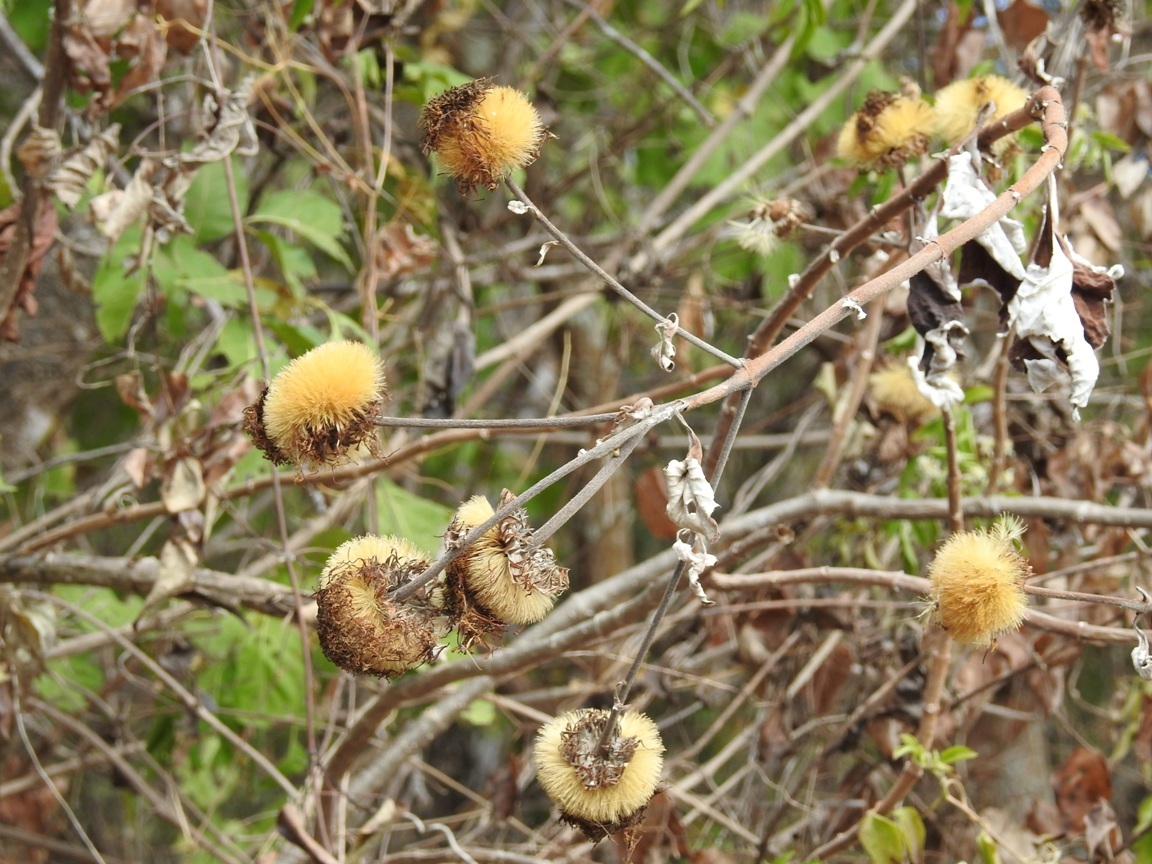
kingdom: Plantae
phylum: Tracheophyta
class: Magnoliopsida
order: Asterales
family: Asteraceae
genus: Sinclairia
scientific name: Sinclairia andrieuxii
